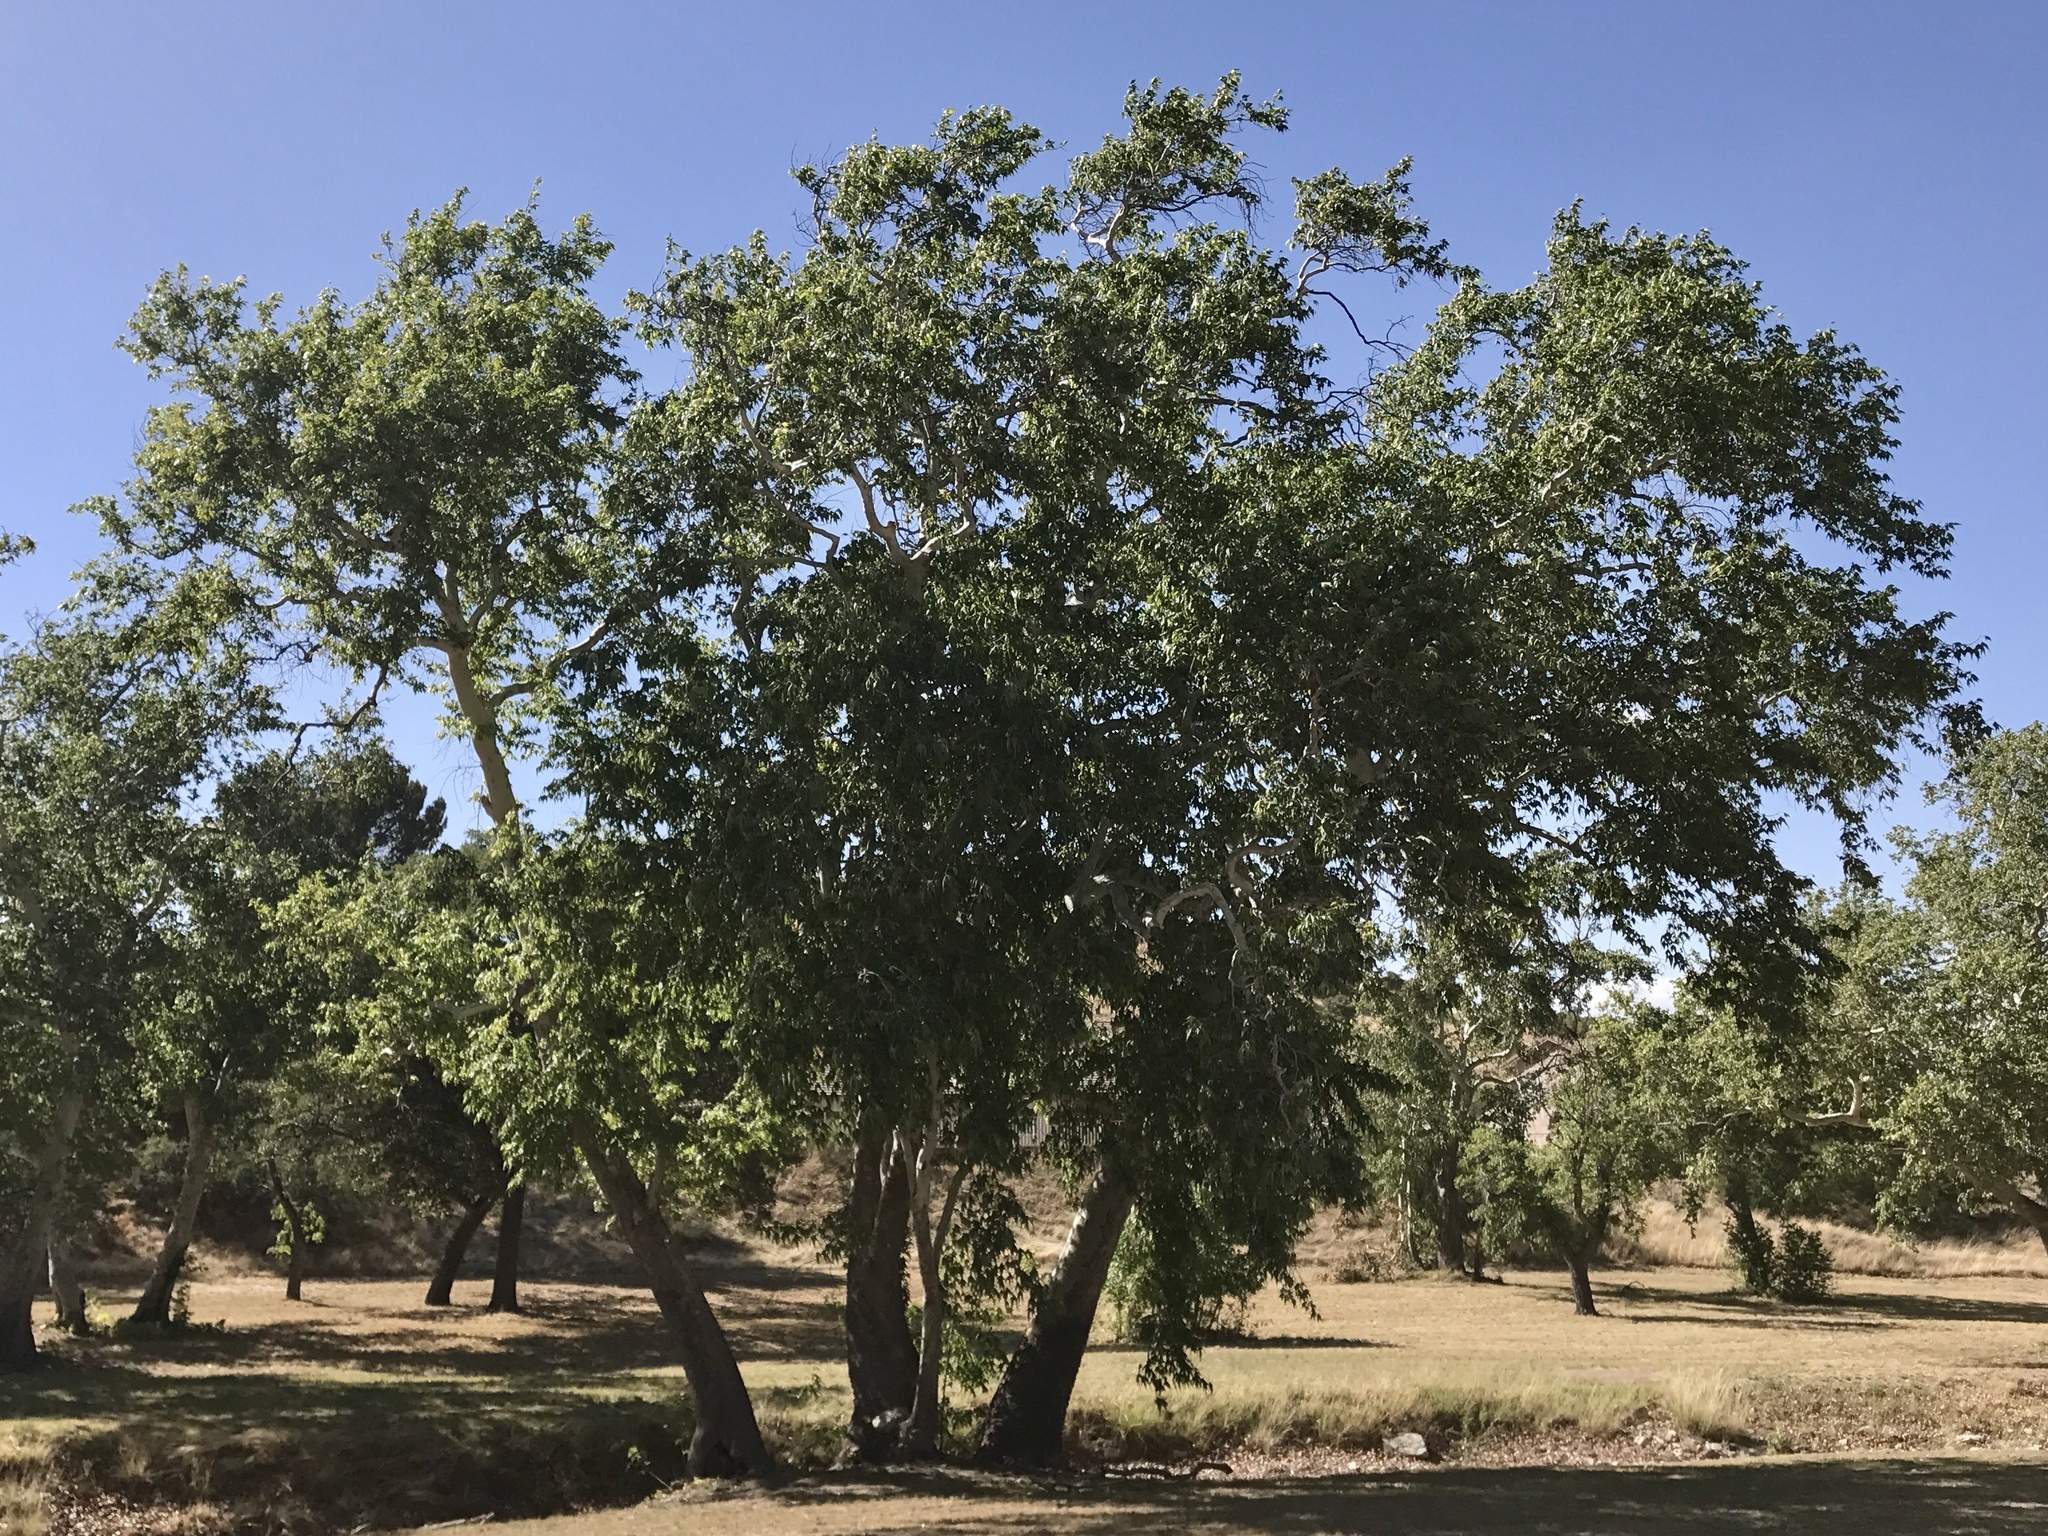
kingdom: Plantae
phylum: Tracheophyta
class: Magnoliopsida
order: Proteales
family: Platanaceae
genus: Platanus
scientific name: Platanus wrightii
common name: Arizona sycamore
